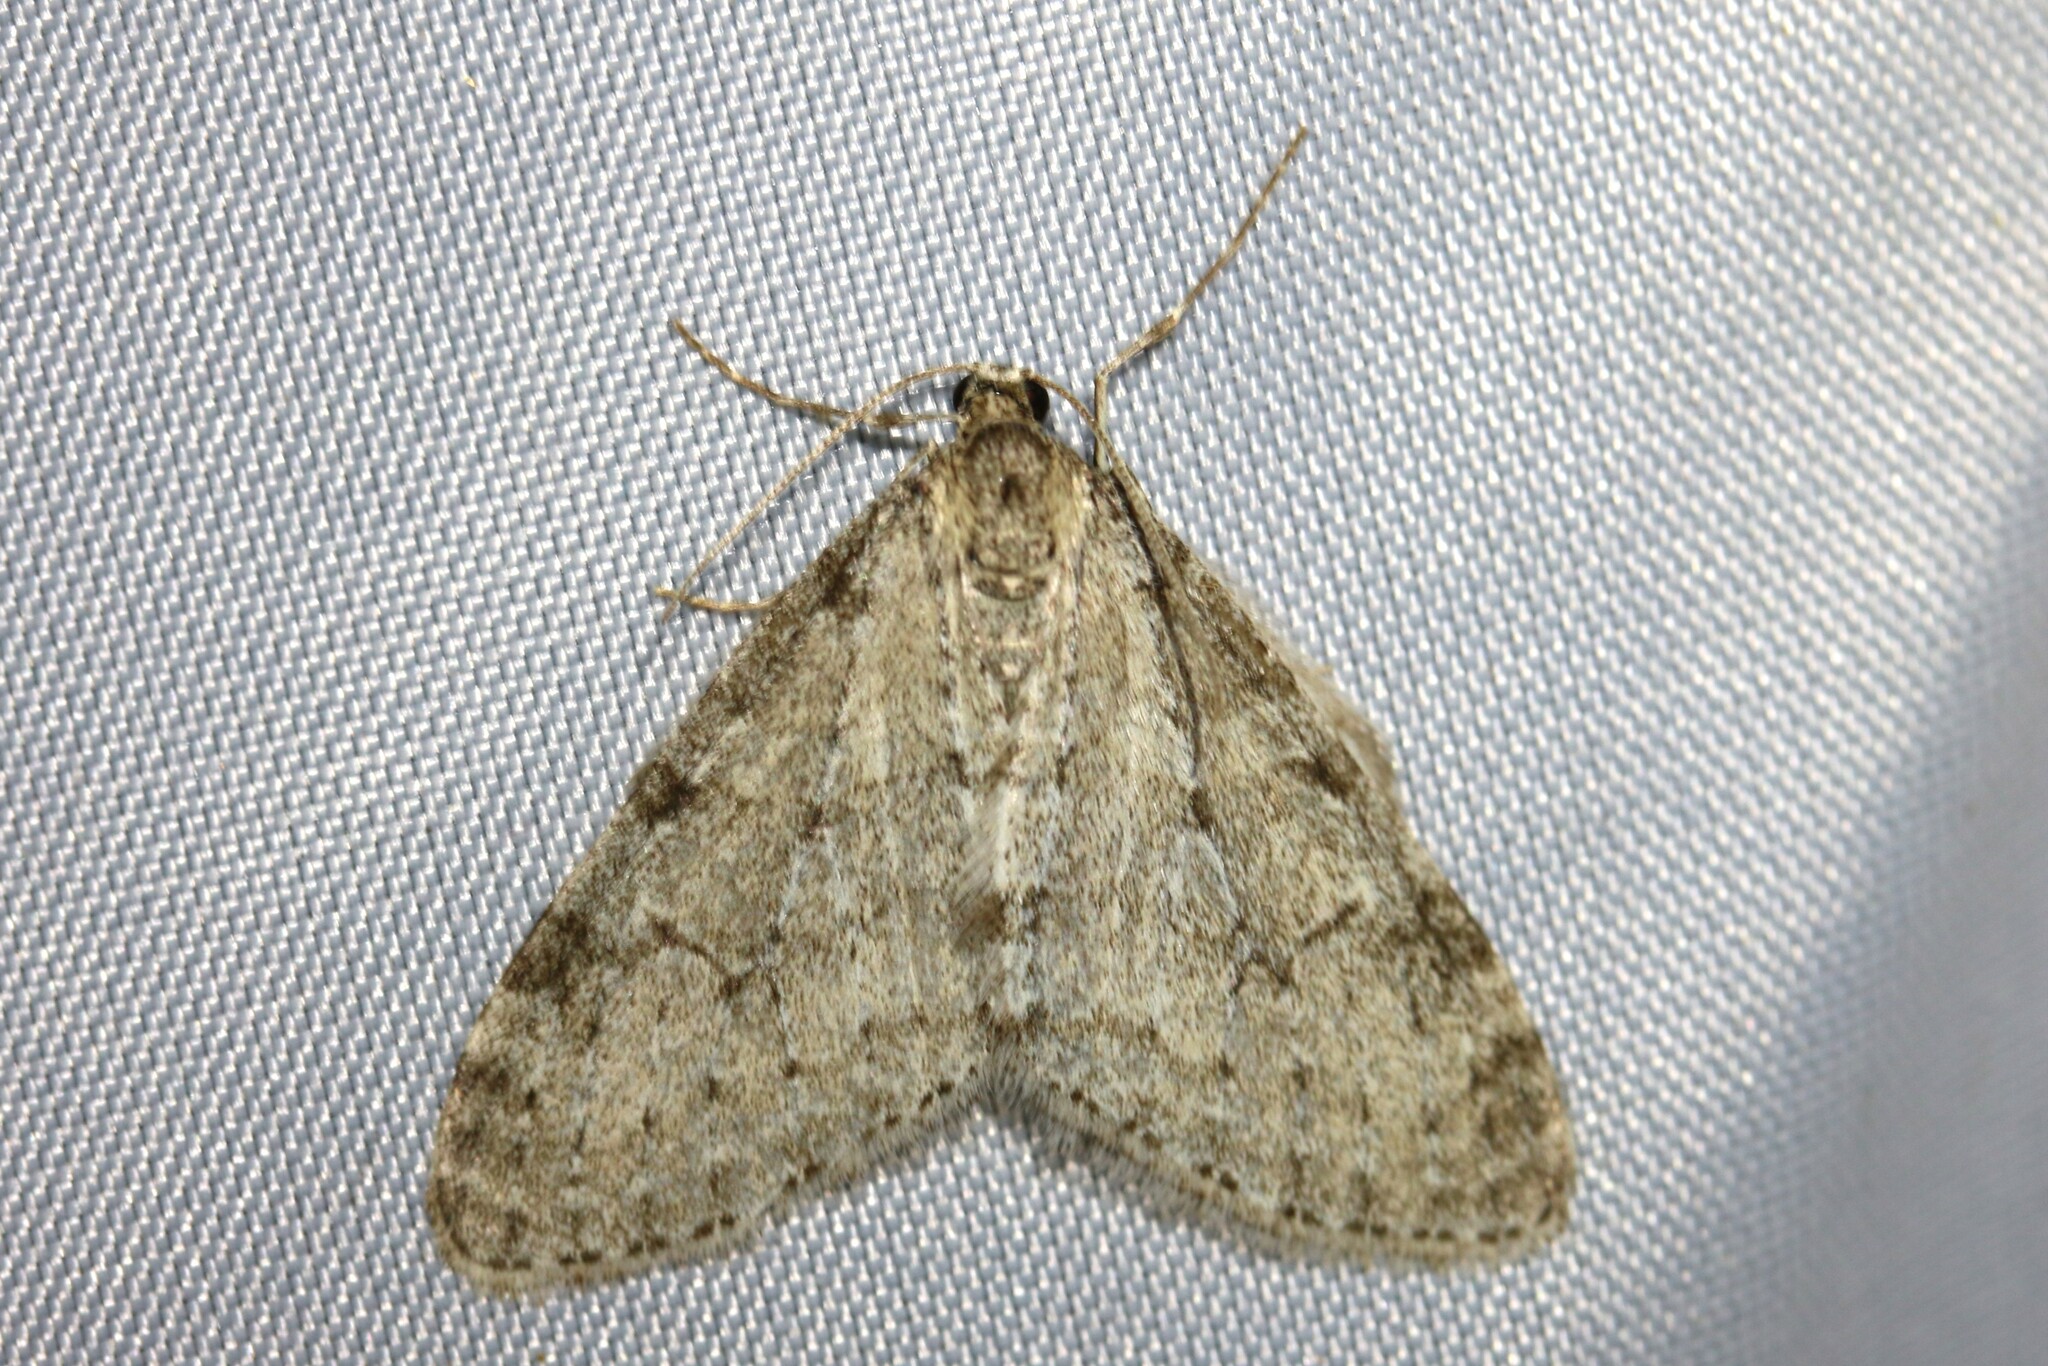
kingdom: Animalia
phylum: Arthropoda
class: Insecta
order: Lepidoptera
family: Geometridae
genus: Trichopteryx
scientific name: Trichopteryx carpinata
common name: Early tooth-striped
